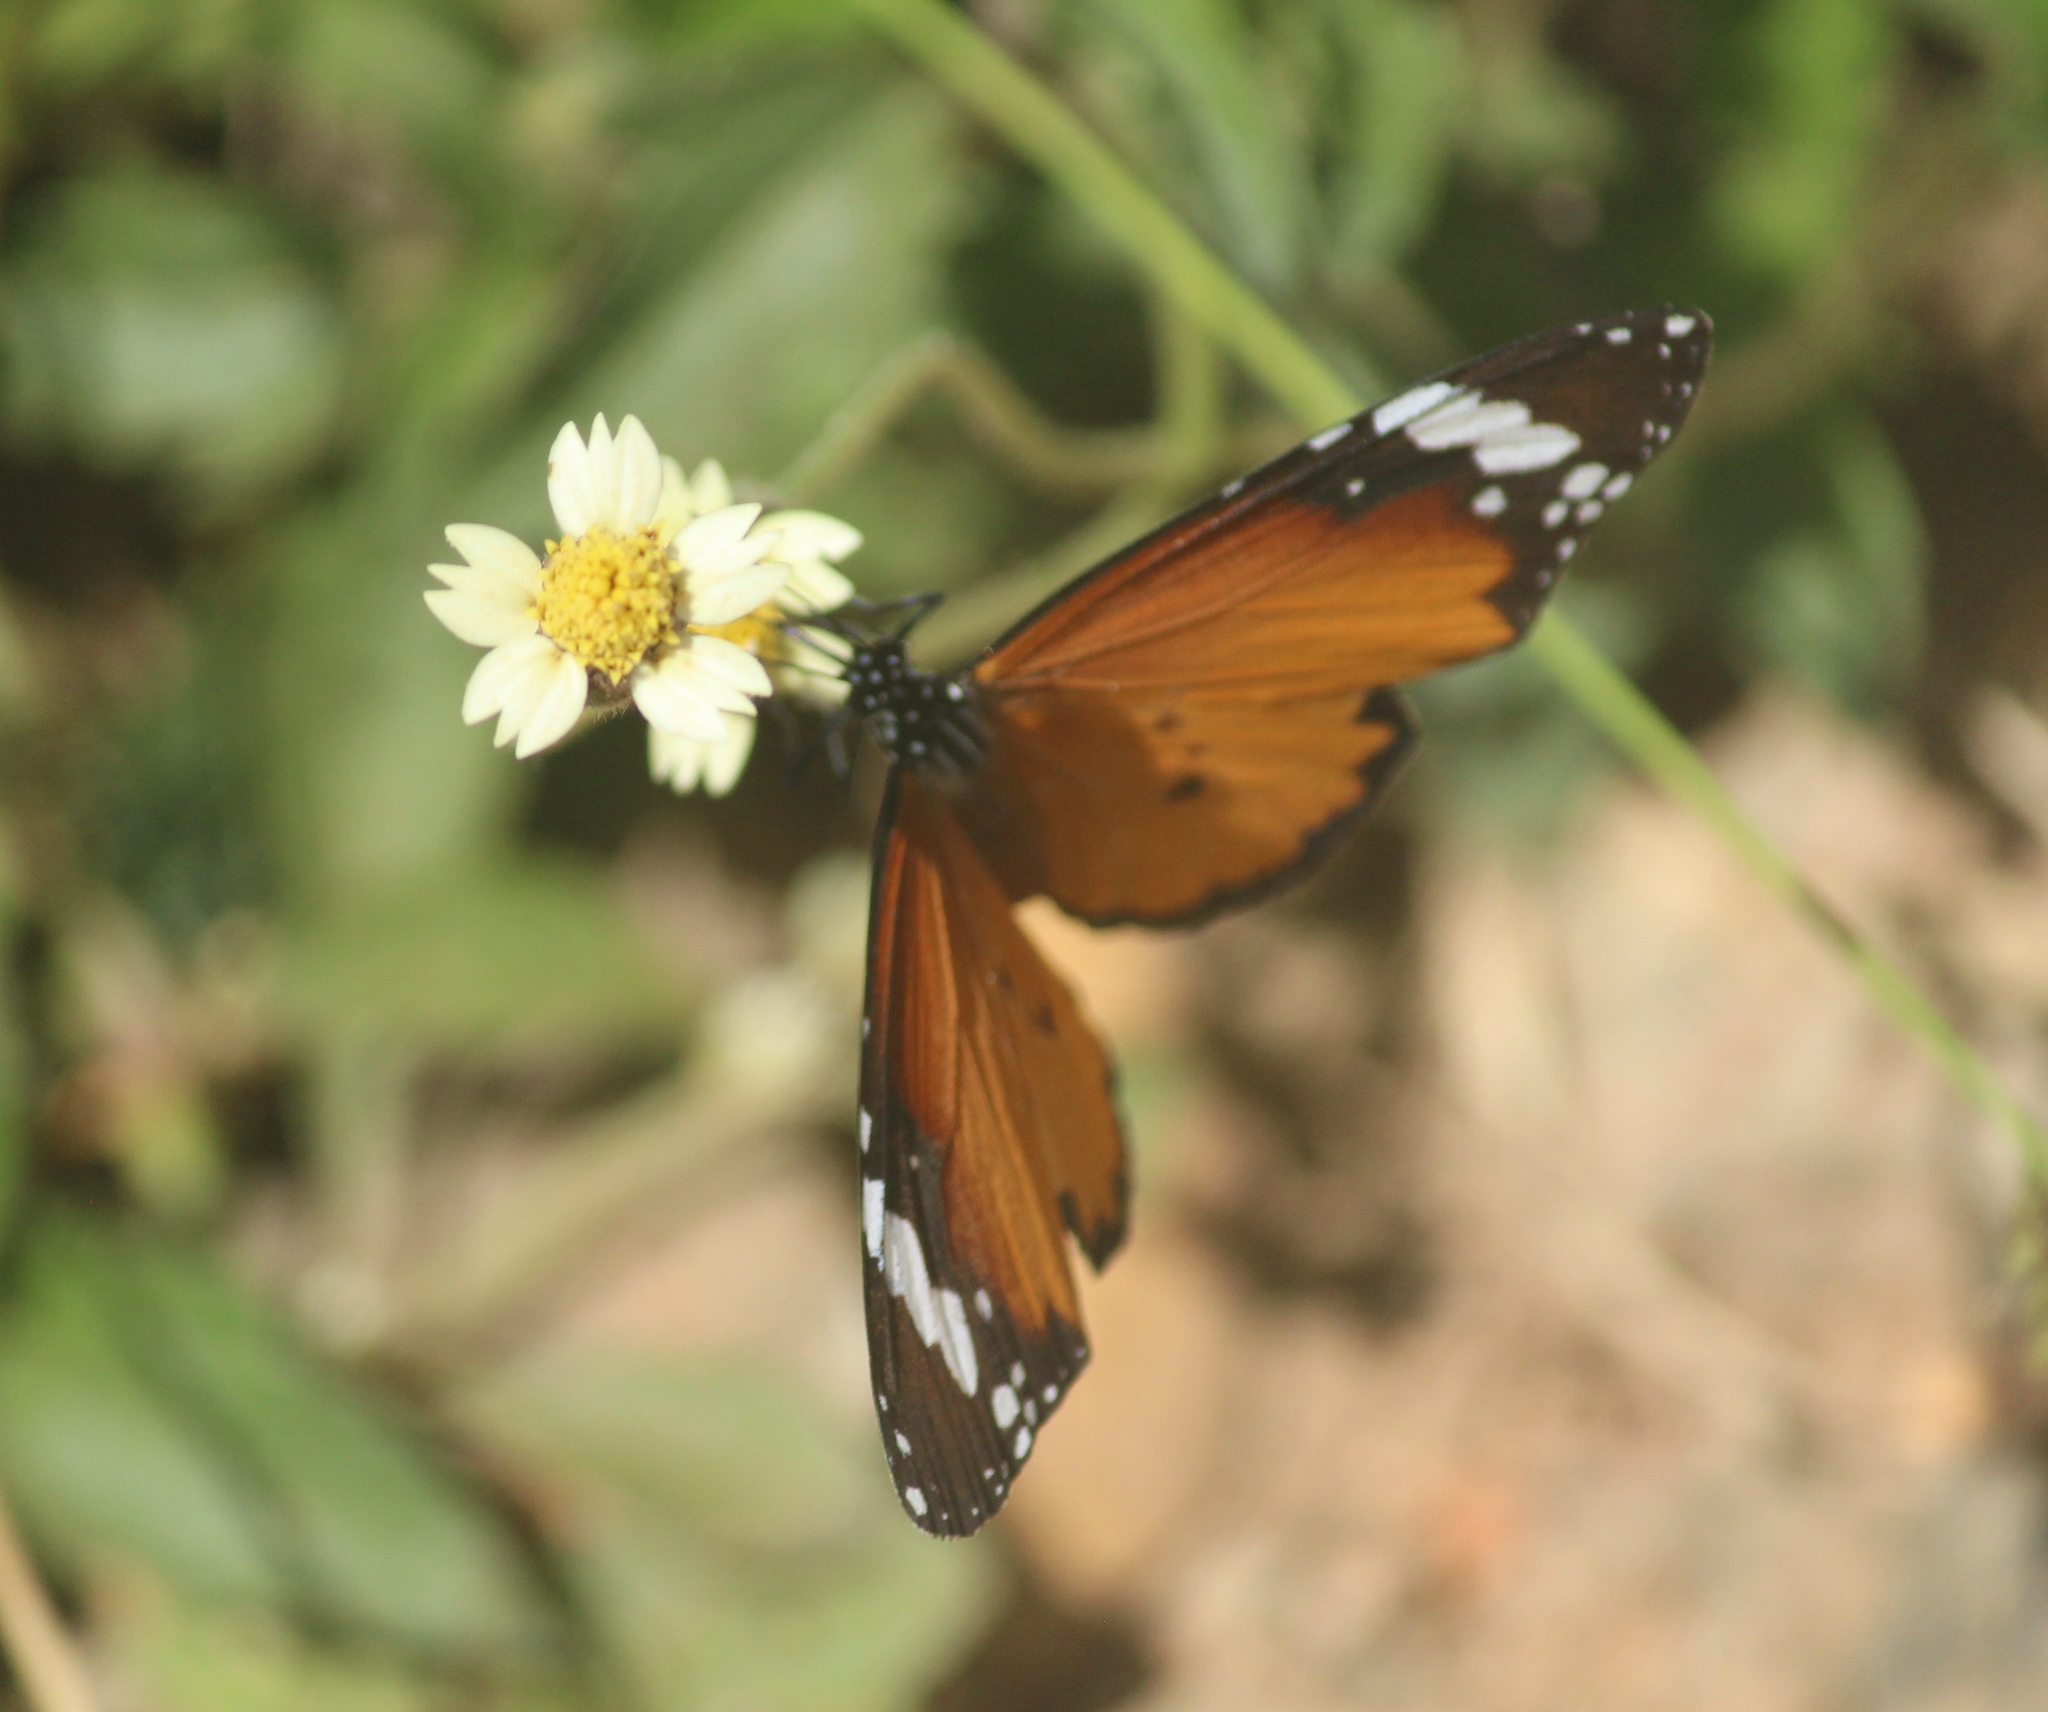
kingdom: Animalia
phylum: Arthropoda
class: Insecta
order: Lepidoptera
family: Nymphalidae
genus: Danaus
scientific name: Danaus chrysippus
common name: Plain tiger
